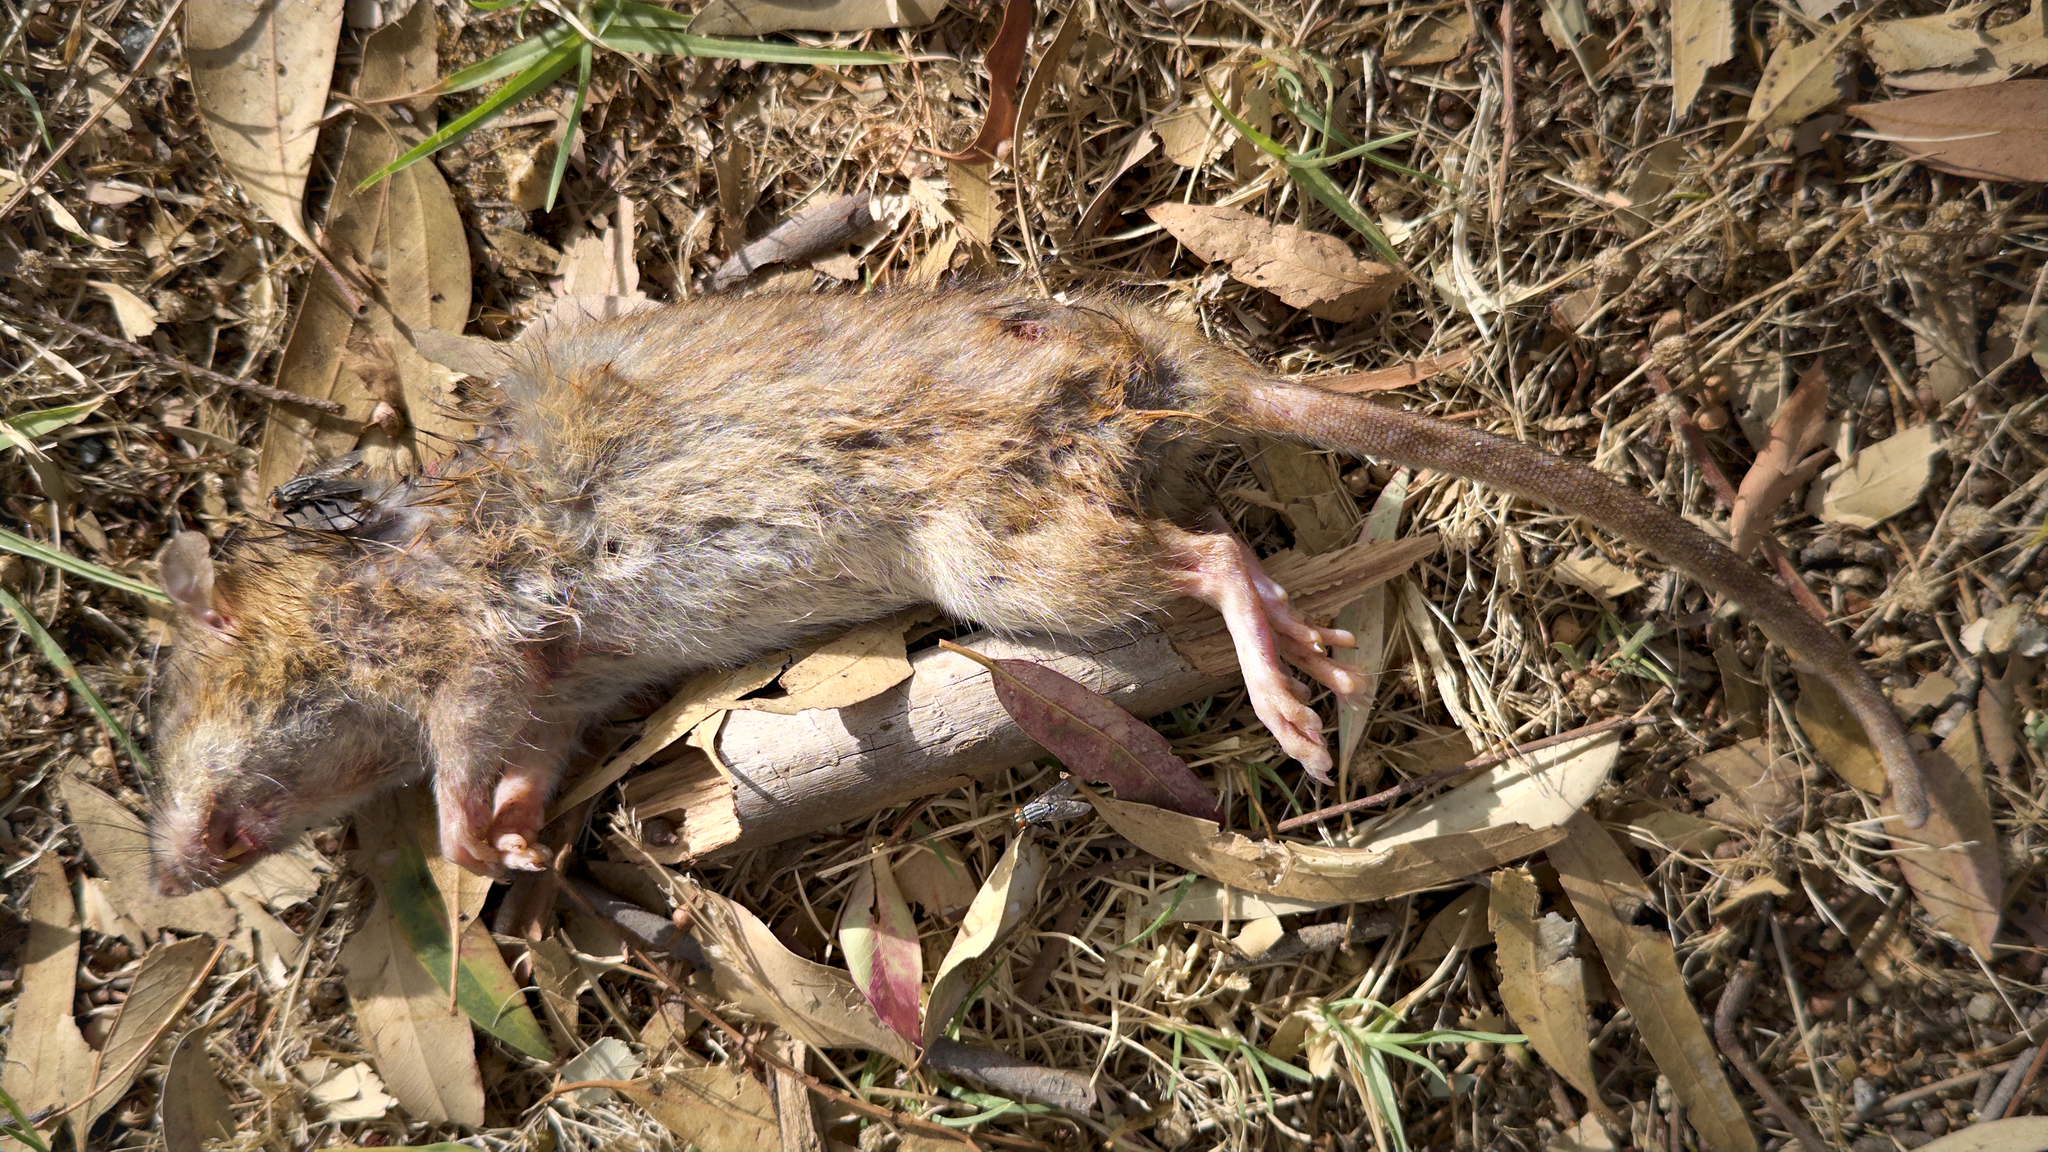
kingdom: Animalia
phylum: Chordata
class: Mammalia
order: Rodentia
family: Muridae
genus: Rattus
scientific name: Rattus norvegicus
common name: Brown rat
